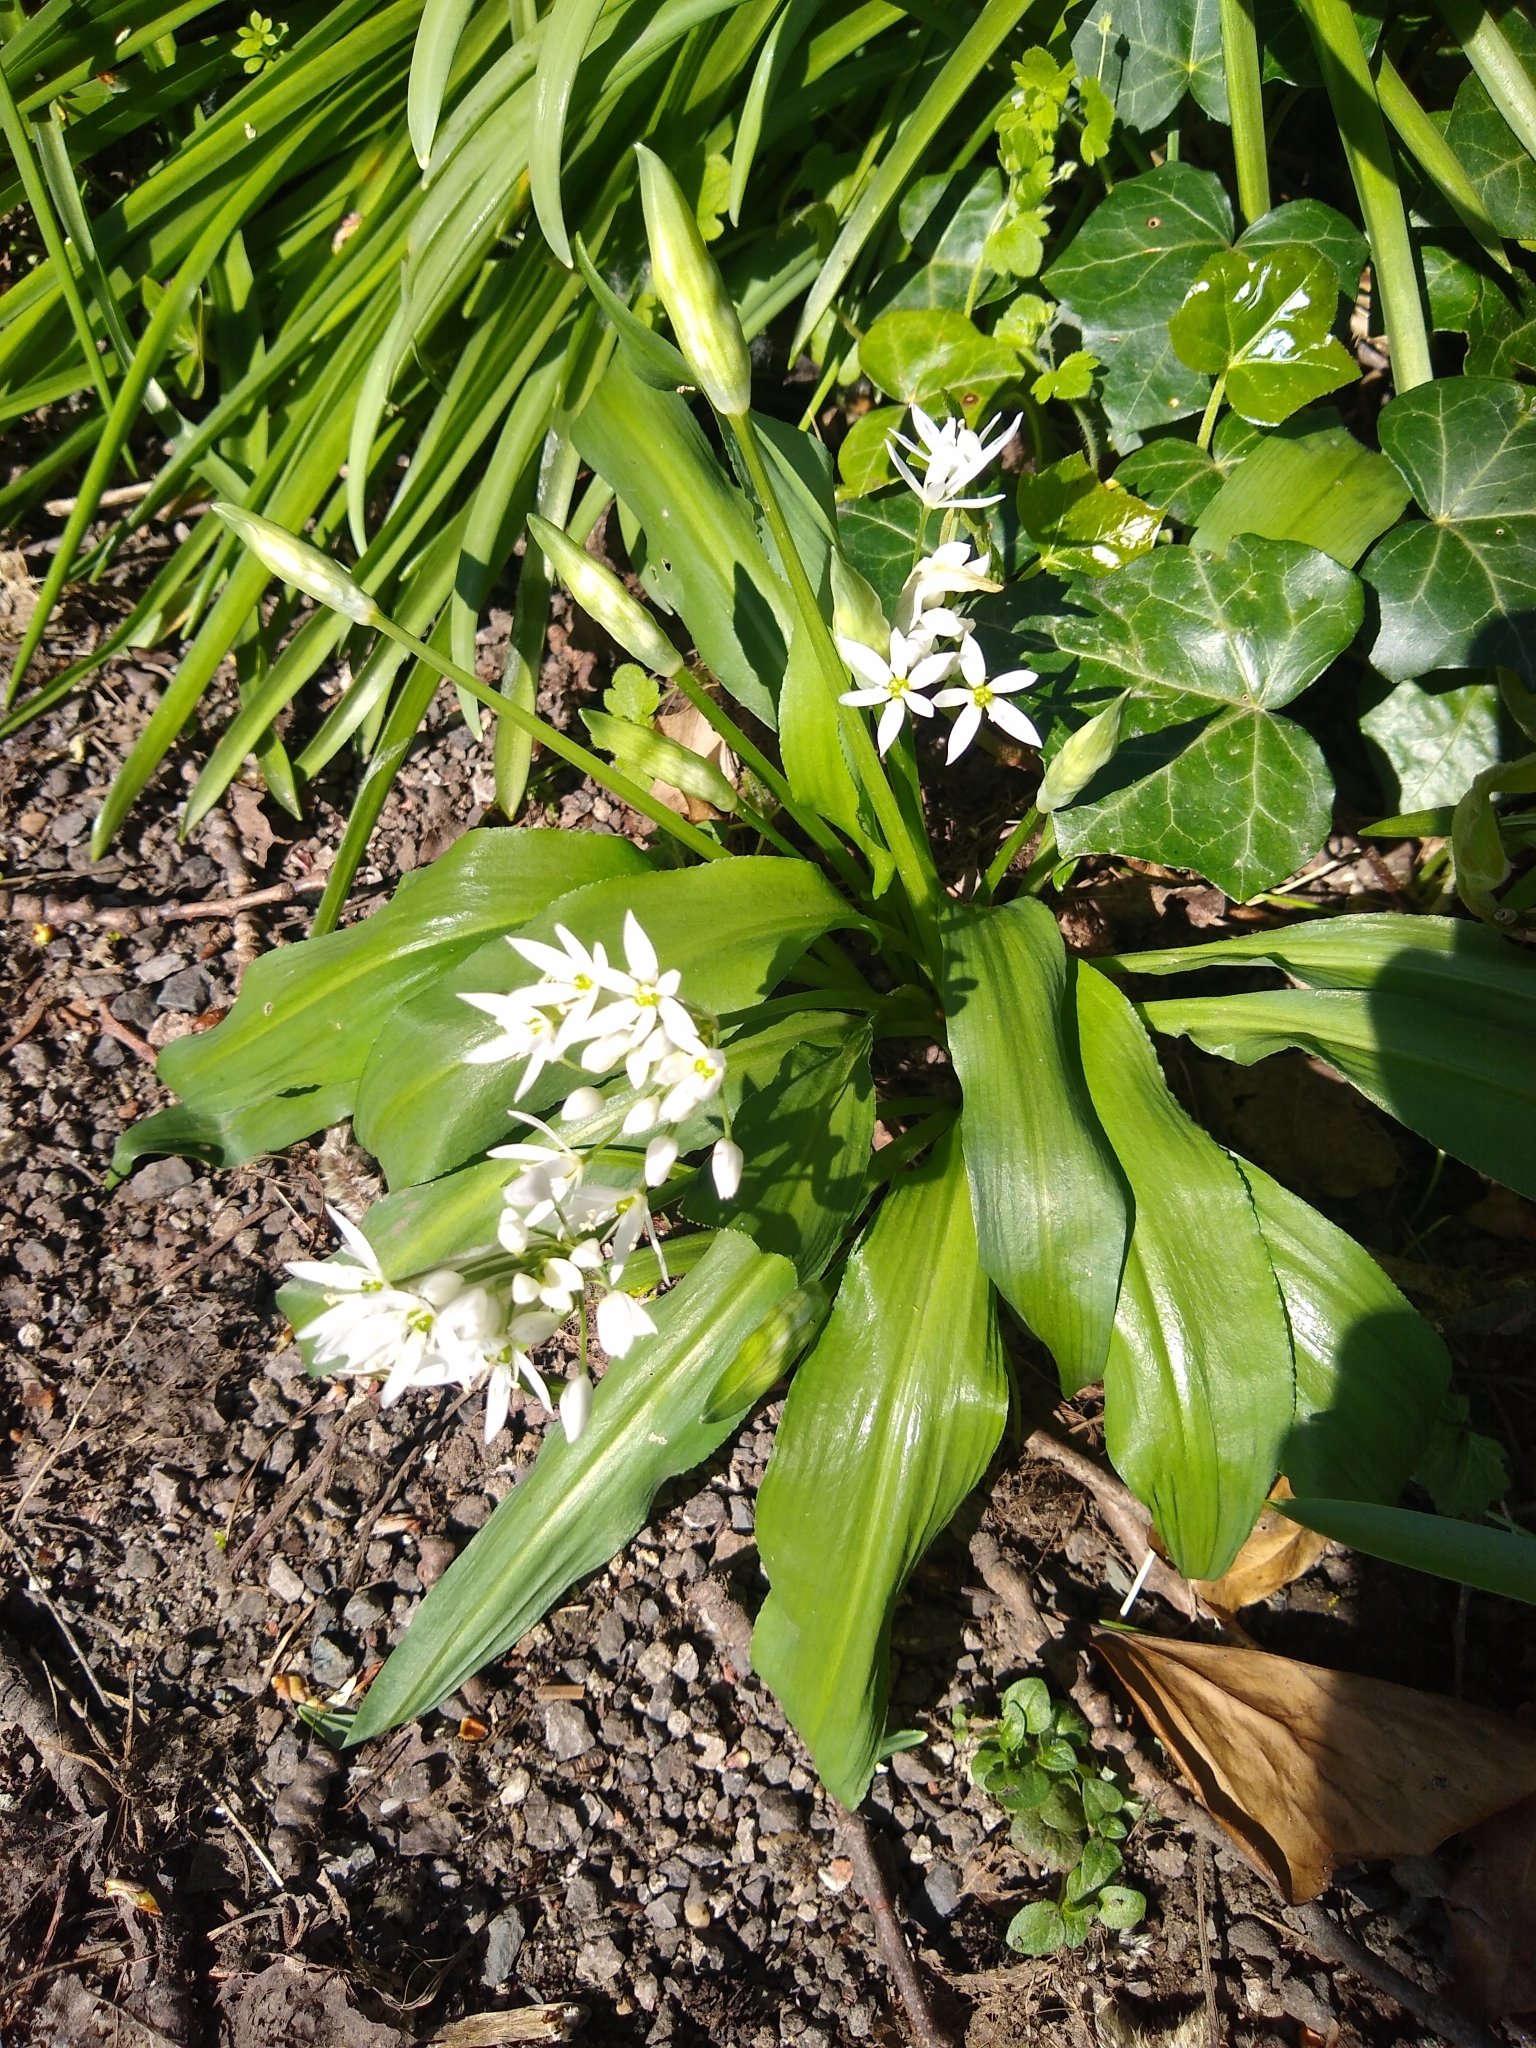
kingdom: Plantae
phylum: Tracheophyta
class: Liliopsida
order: Asparagales
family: Amaryllidaceae
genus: Allium
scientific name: Allium ursinum
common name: Ramsons
